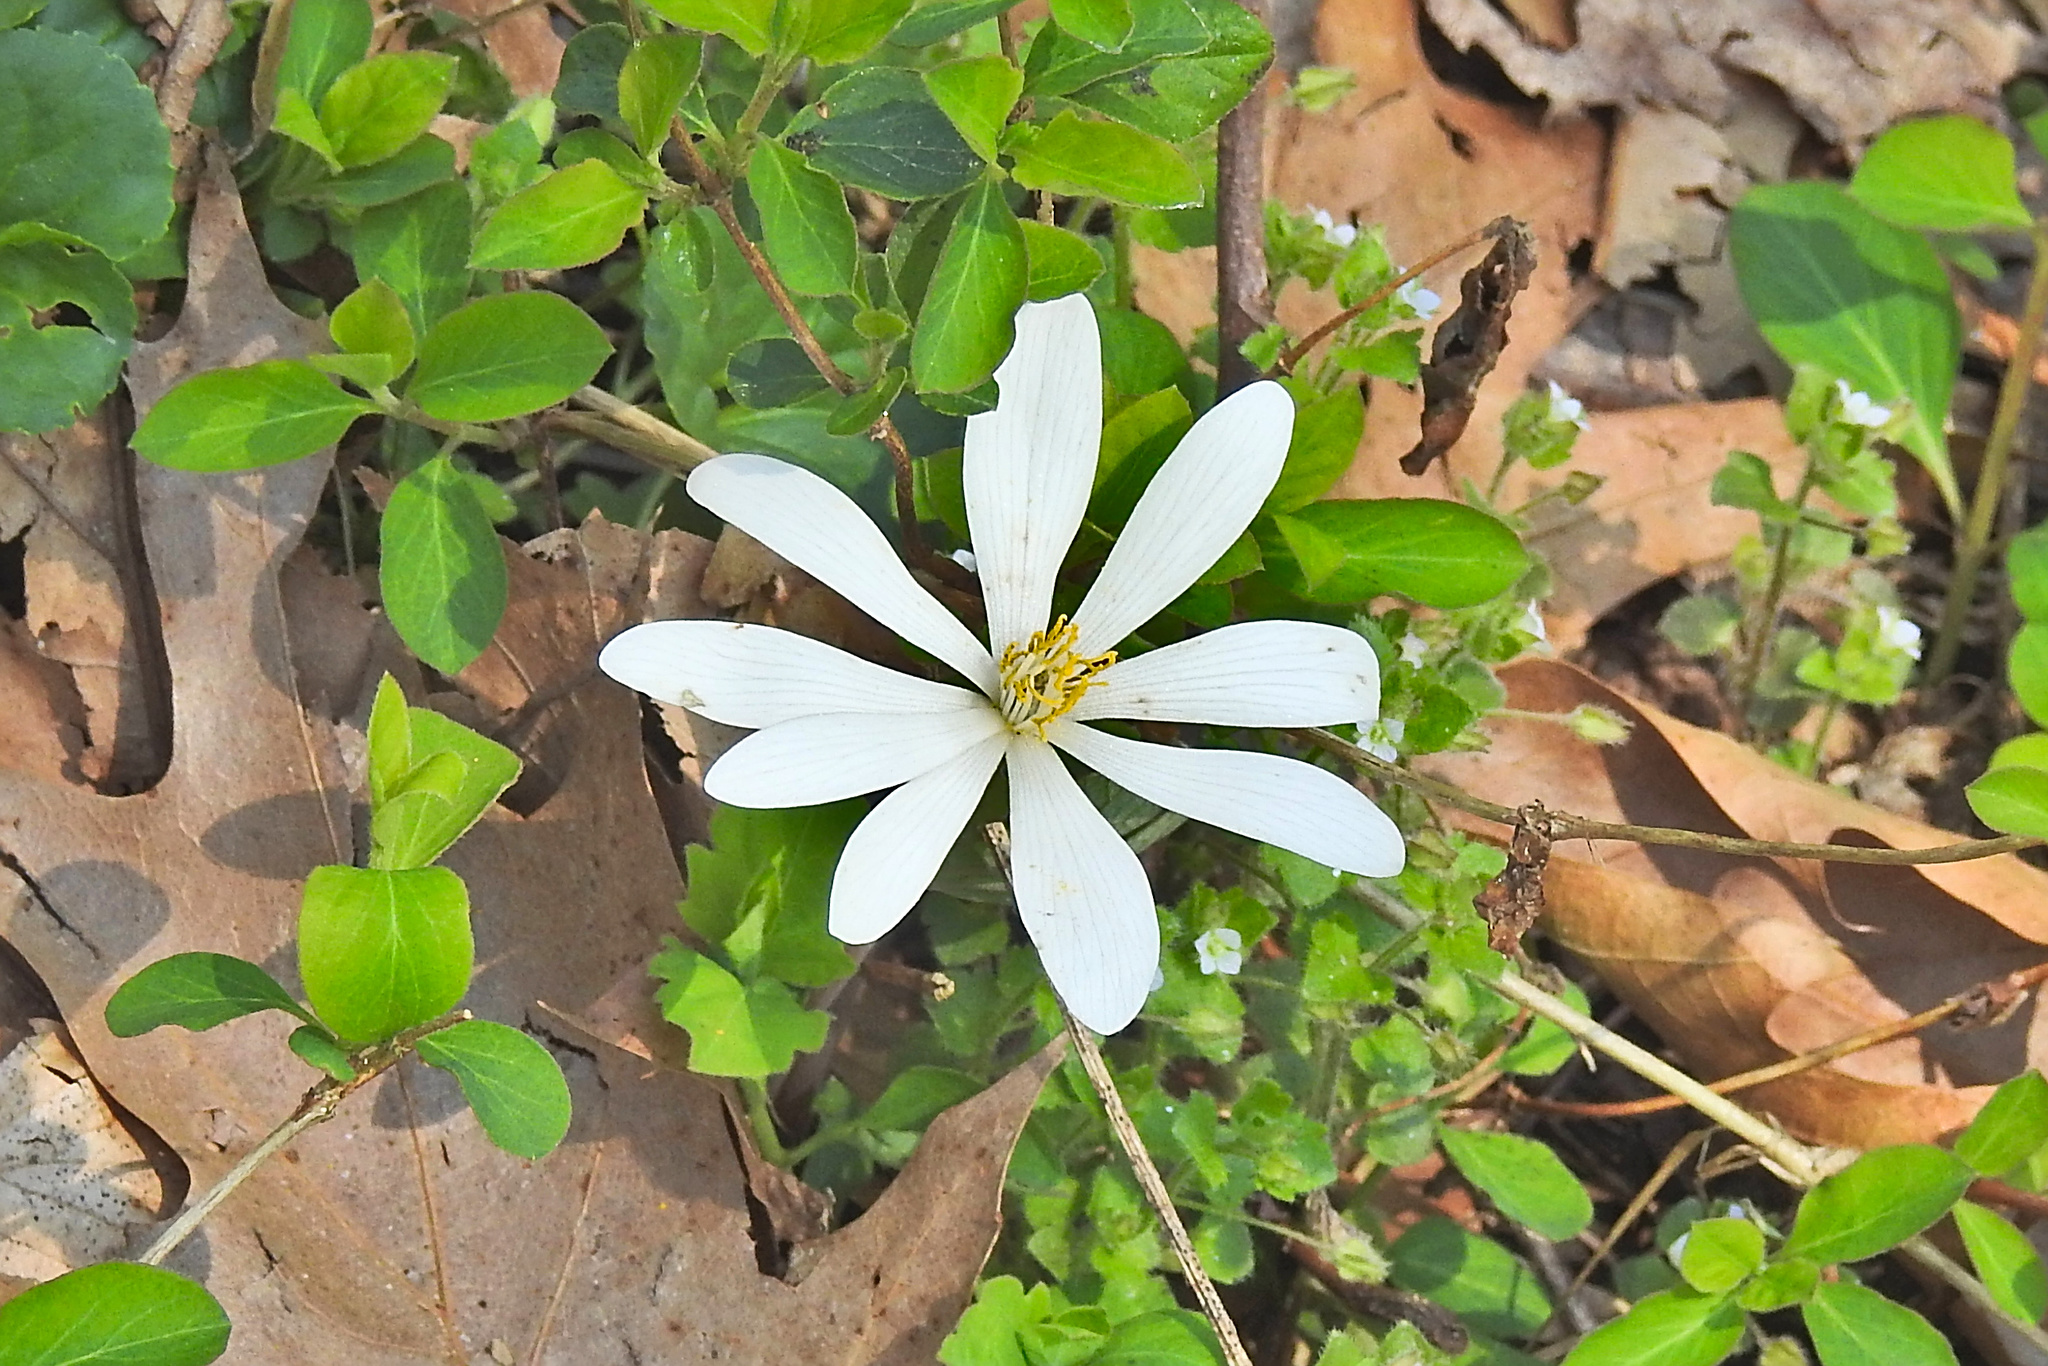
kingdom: Plantae
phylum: Tracheophyta
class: Magnoliopsida
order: Ranunculales
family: Papaveraceae
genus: Sanguinaria
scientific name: Sanguinaria canadensis
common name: Bloodroot
